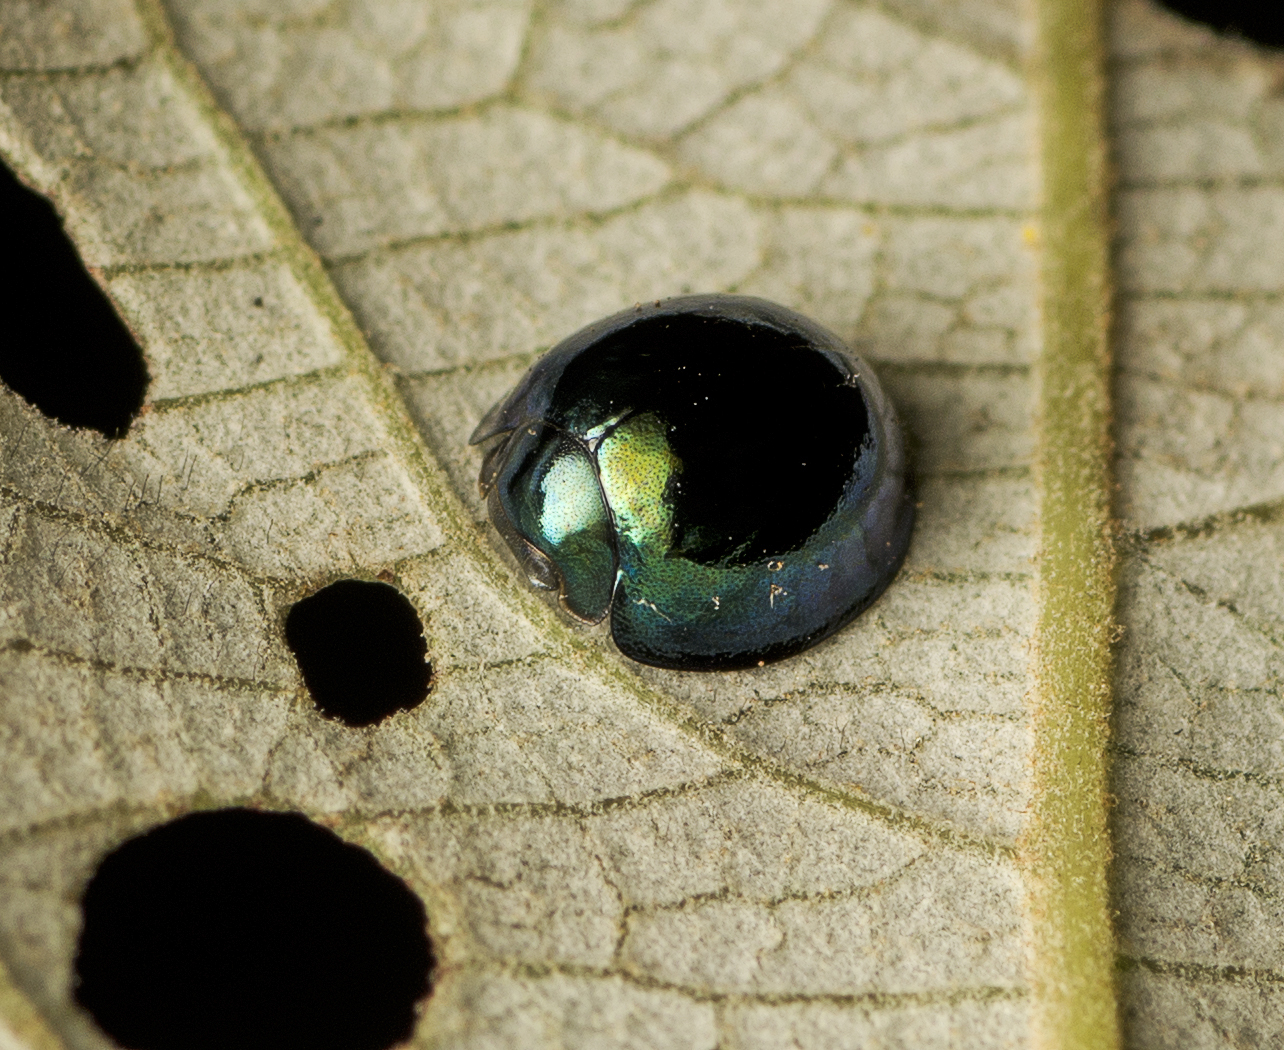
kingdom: Animalia
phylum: Arthropoda
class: Insecta
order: Coleoptera
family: Coccinellidae
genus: Halmus
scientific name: Halmus chalybeus
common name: Steel blue ladybird beetle
